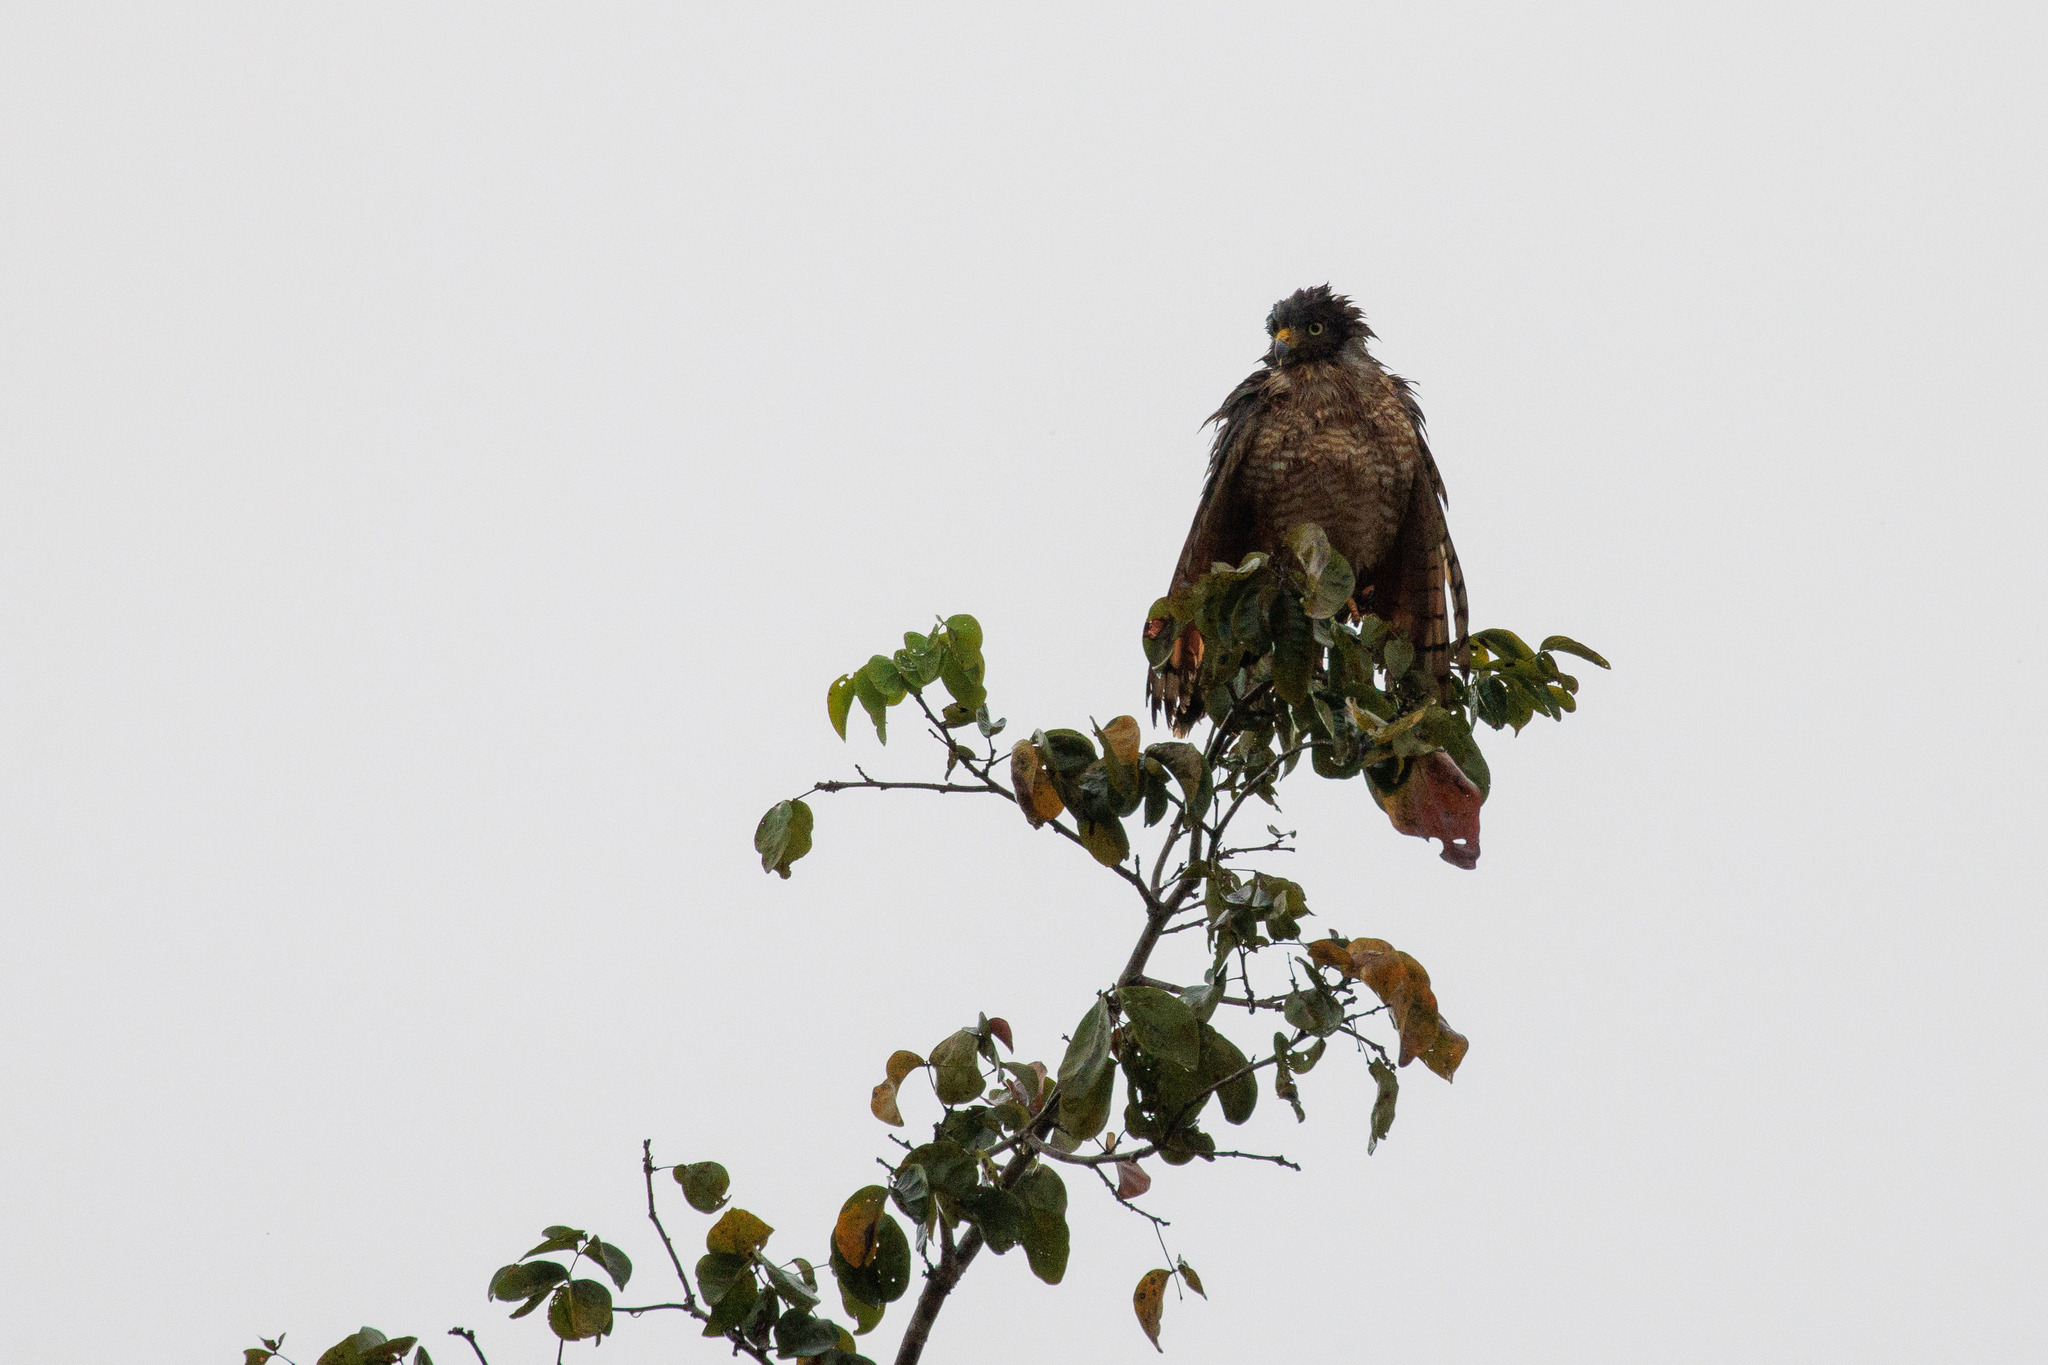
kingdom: Animalia
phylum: Chordata
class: Aves
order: Accipitriformes
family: Accipitridae
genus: Rupornis
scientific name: Rupornis magnirostris
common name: Roadside hawk
